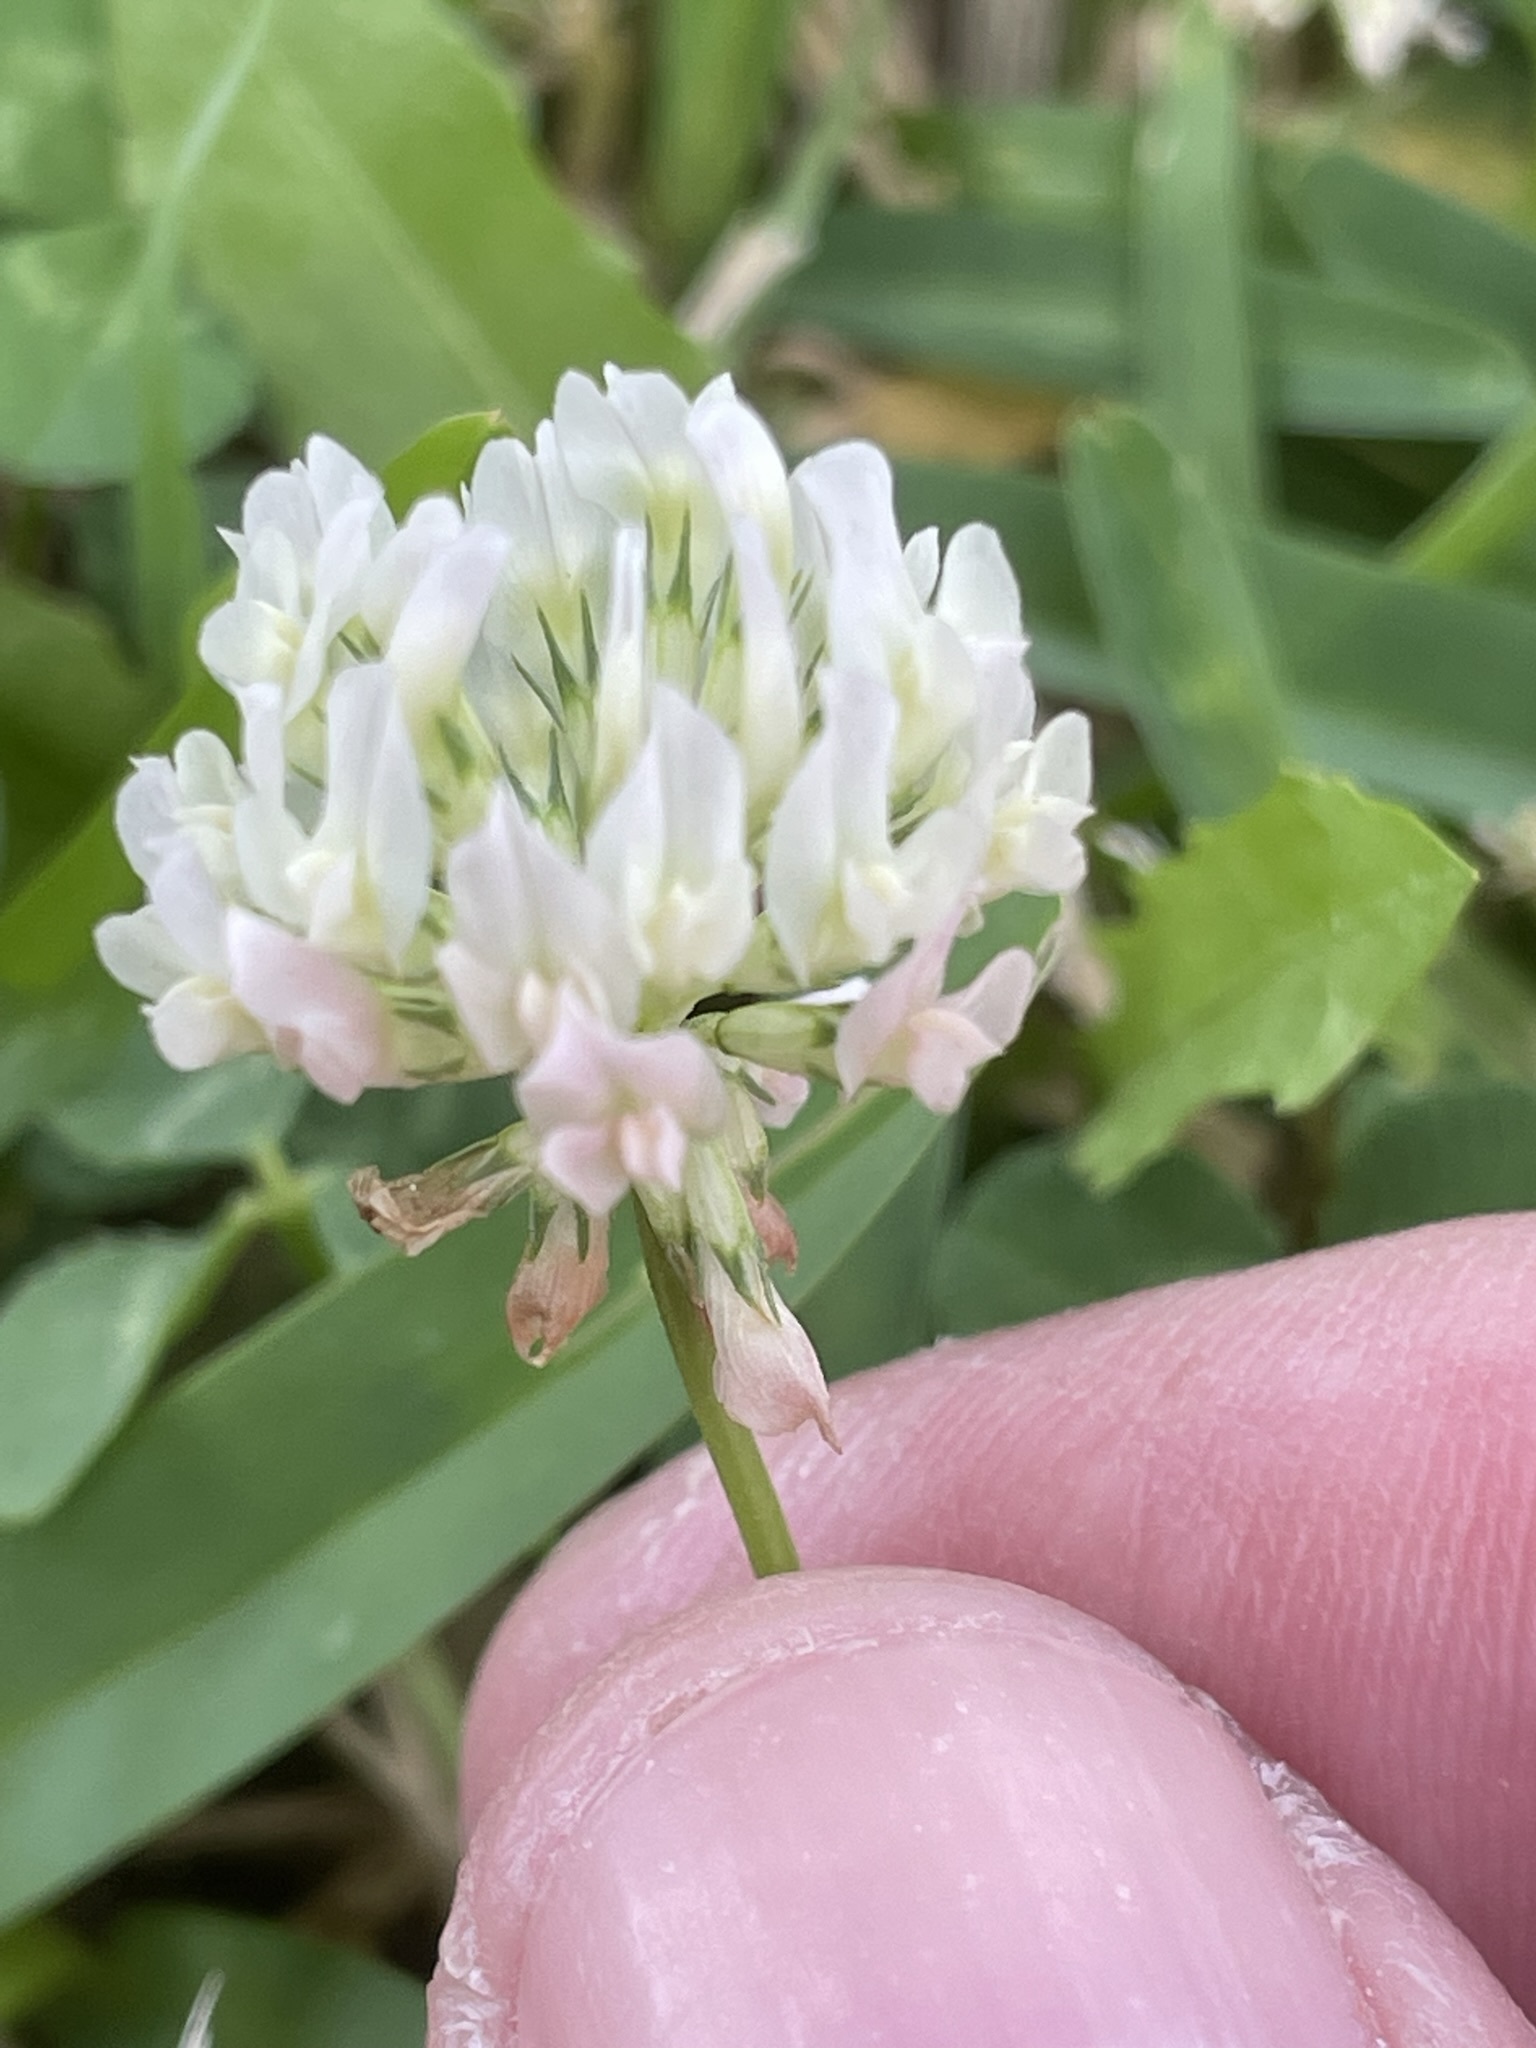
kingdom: Plantae
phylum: Tracheophyta
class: Magnoliopsida
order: Fabales
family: Fabaceae
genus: Trifolium
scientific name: Trifolium repens
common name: White clover
